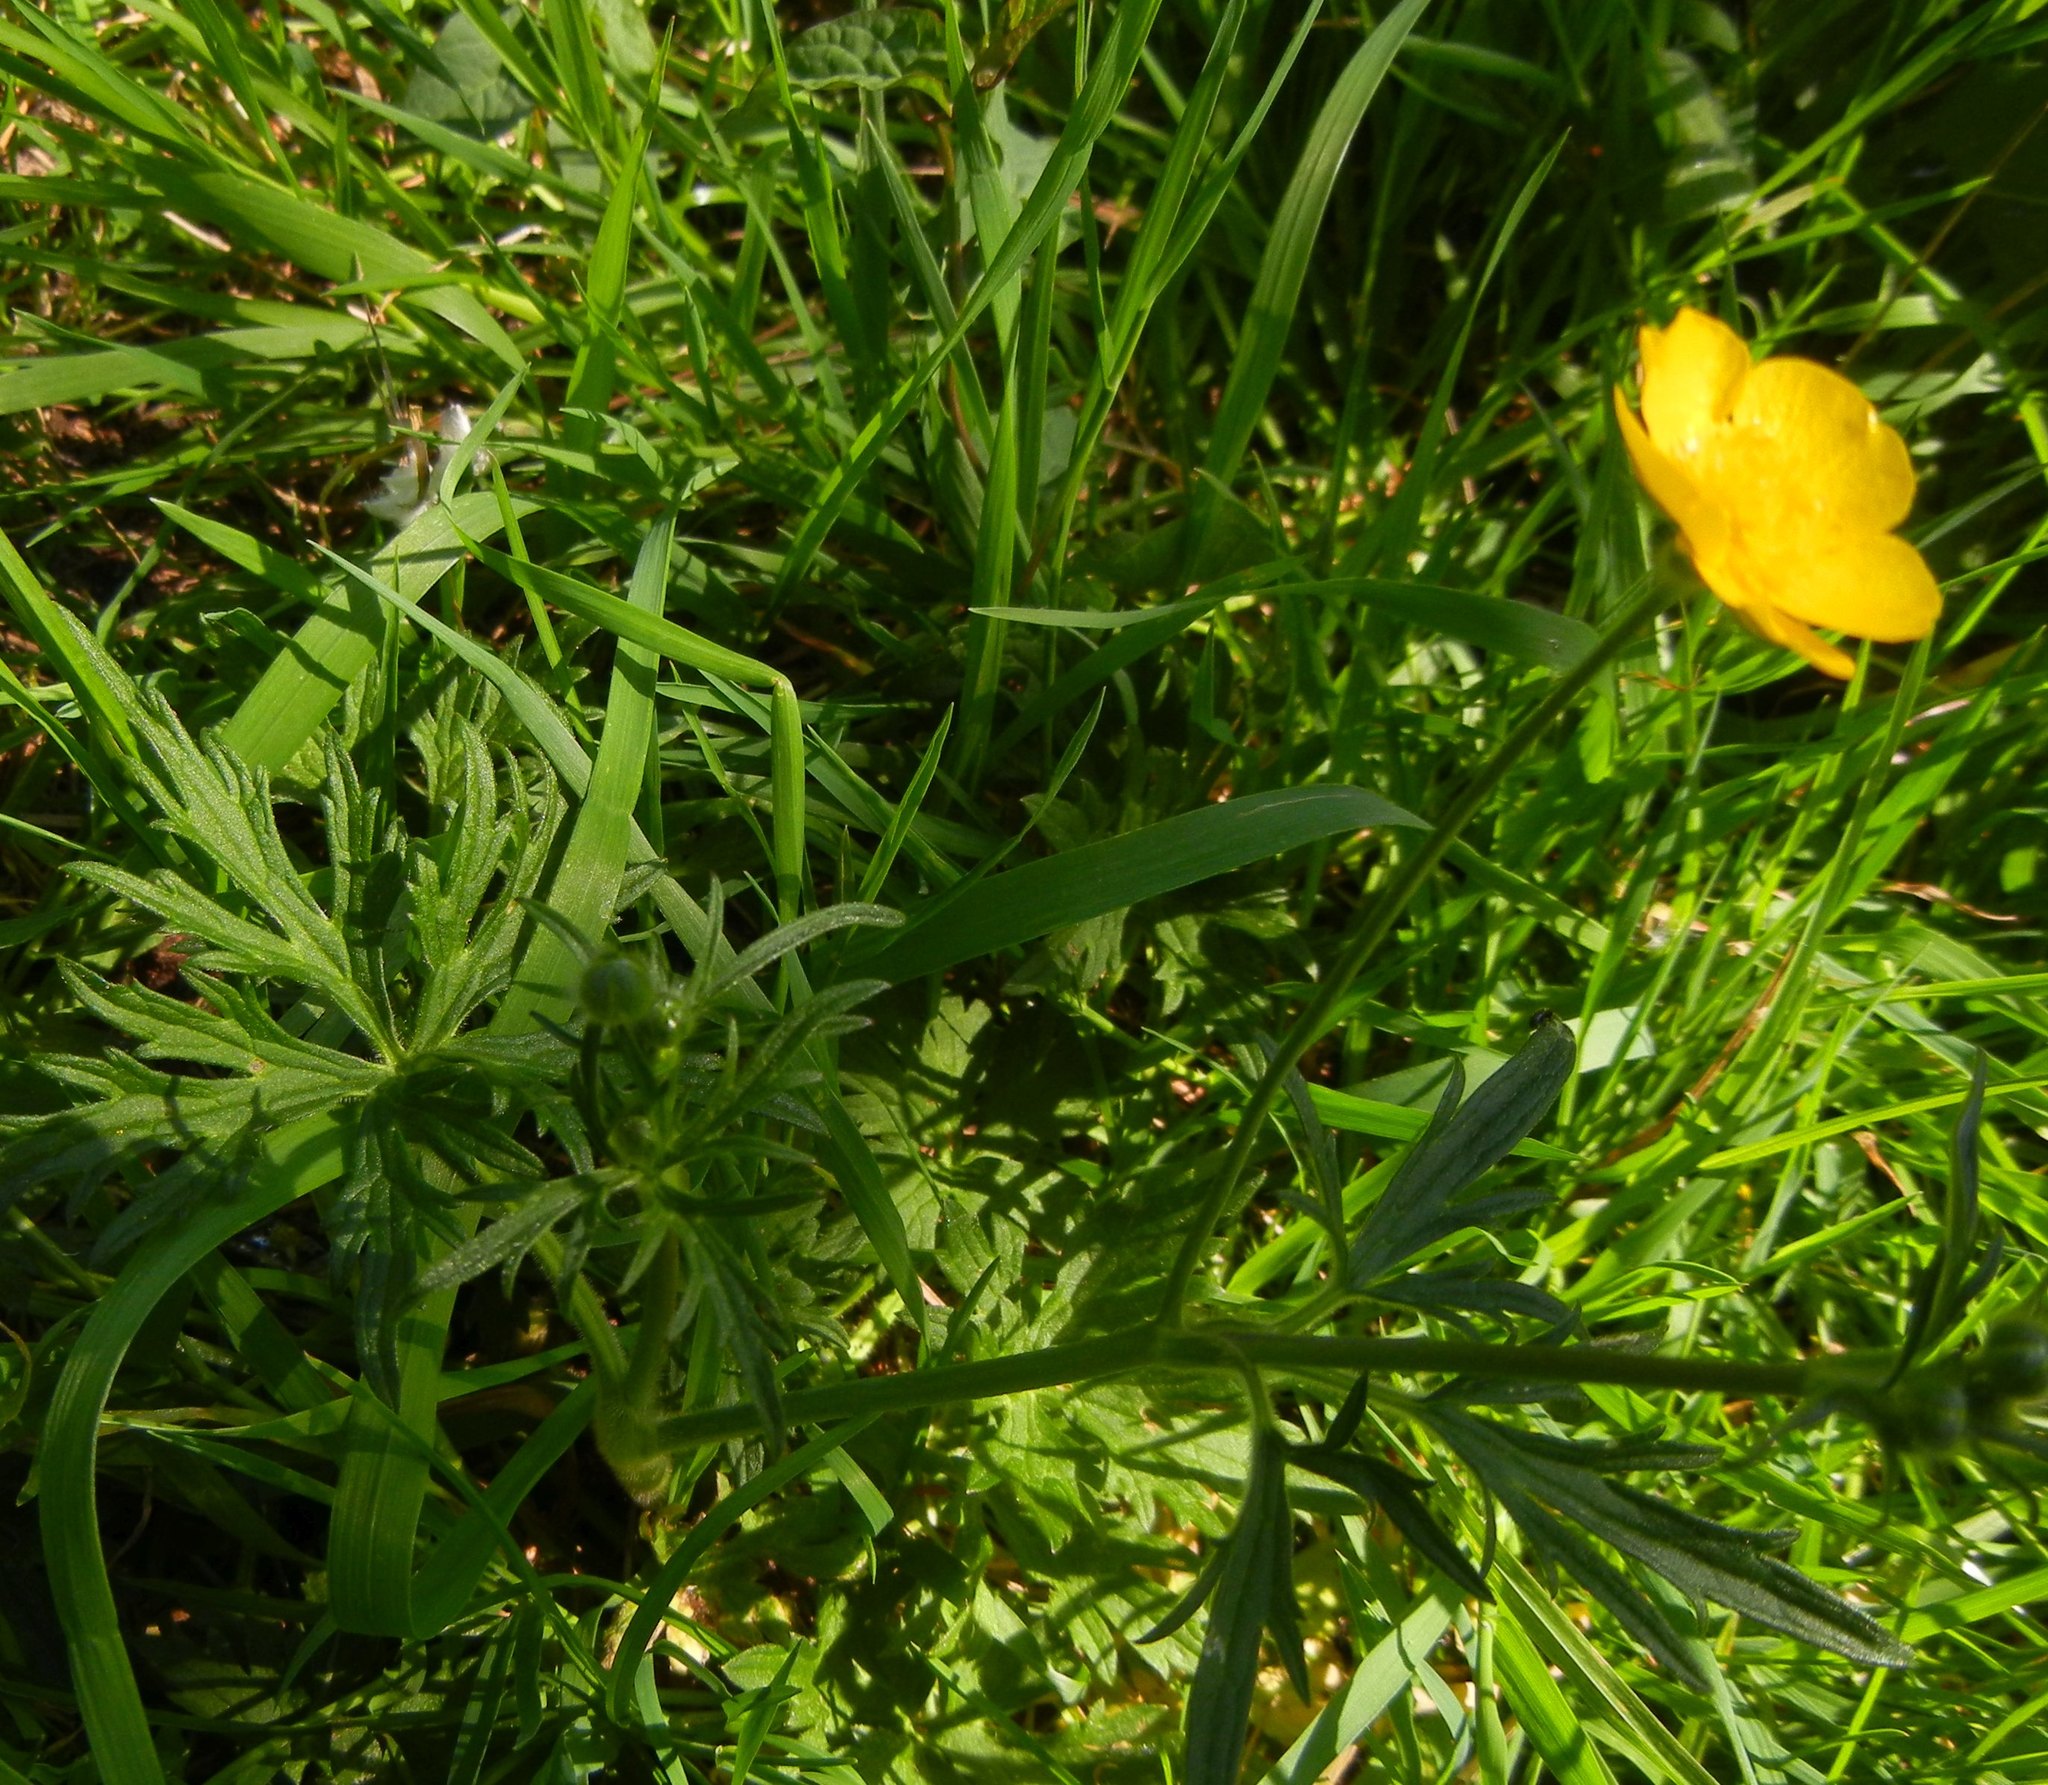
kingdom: Plantae
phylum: Tracheophyta
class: Magnoliopsida
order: Ranunculales
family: Ranunculaceae
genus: Ranunculus
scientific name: Ranunculus acris
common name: Meadow buttercup
